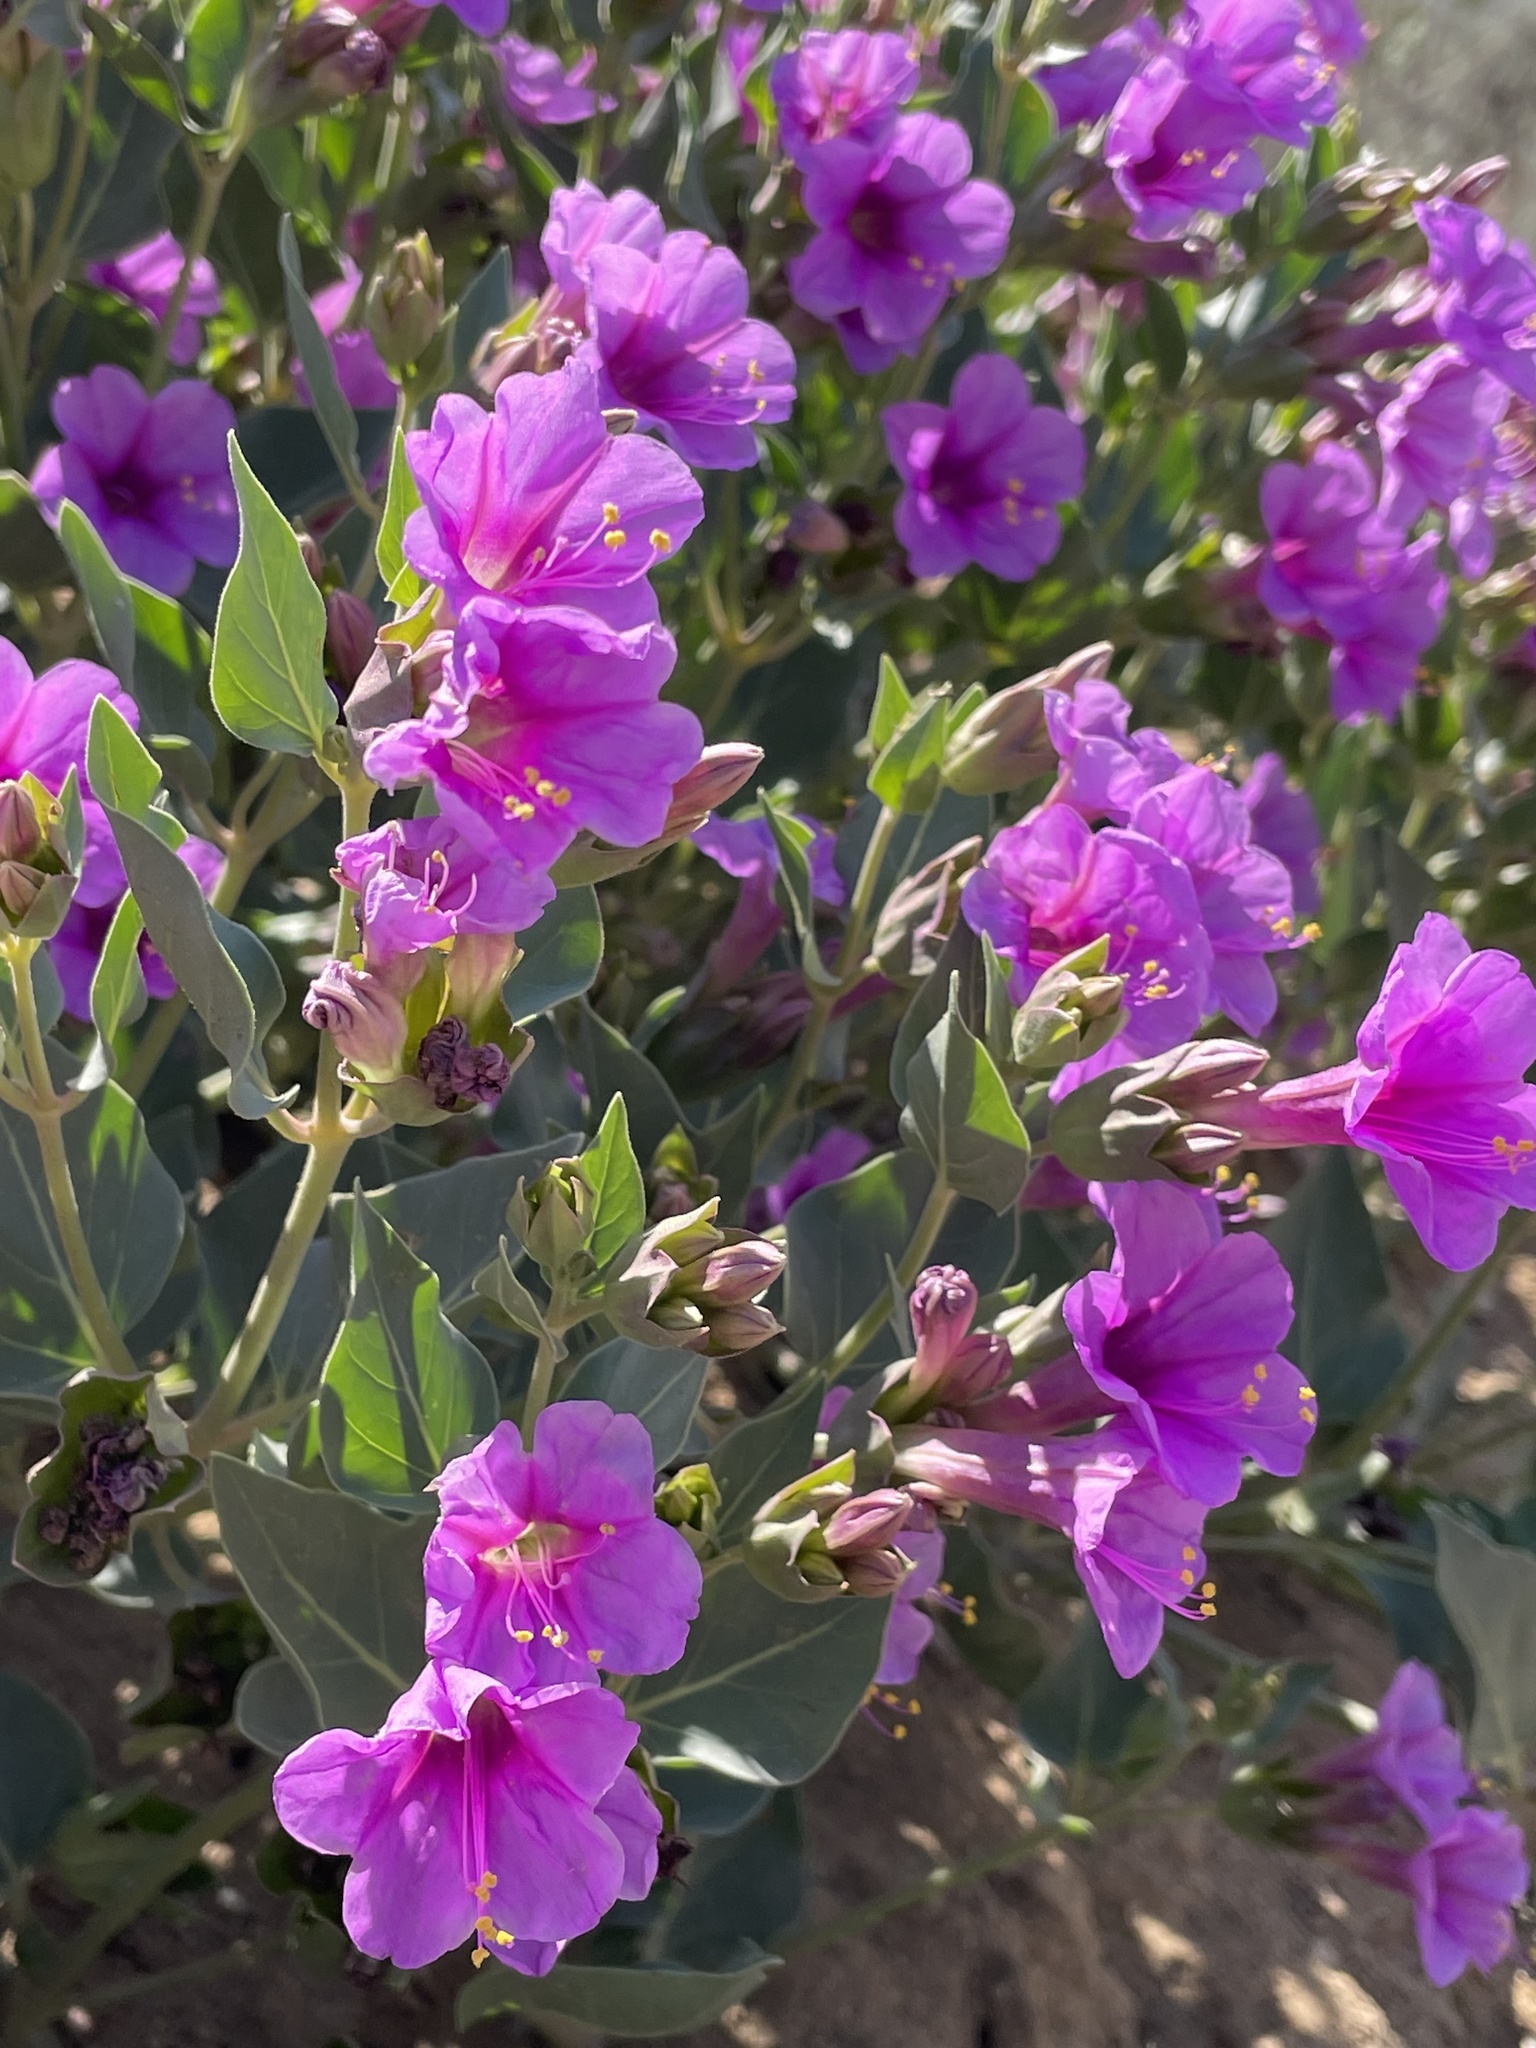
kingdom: Plantae
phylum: Tracheophyta
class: Magnoliopsida
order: Caryophyllales
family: Nyctaginaceae
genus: Mirabilis
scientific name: Mirabilis multiflora
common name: Froebel's four-o'clock
